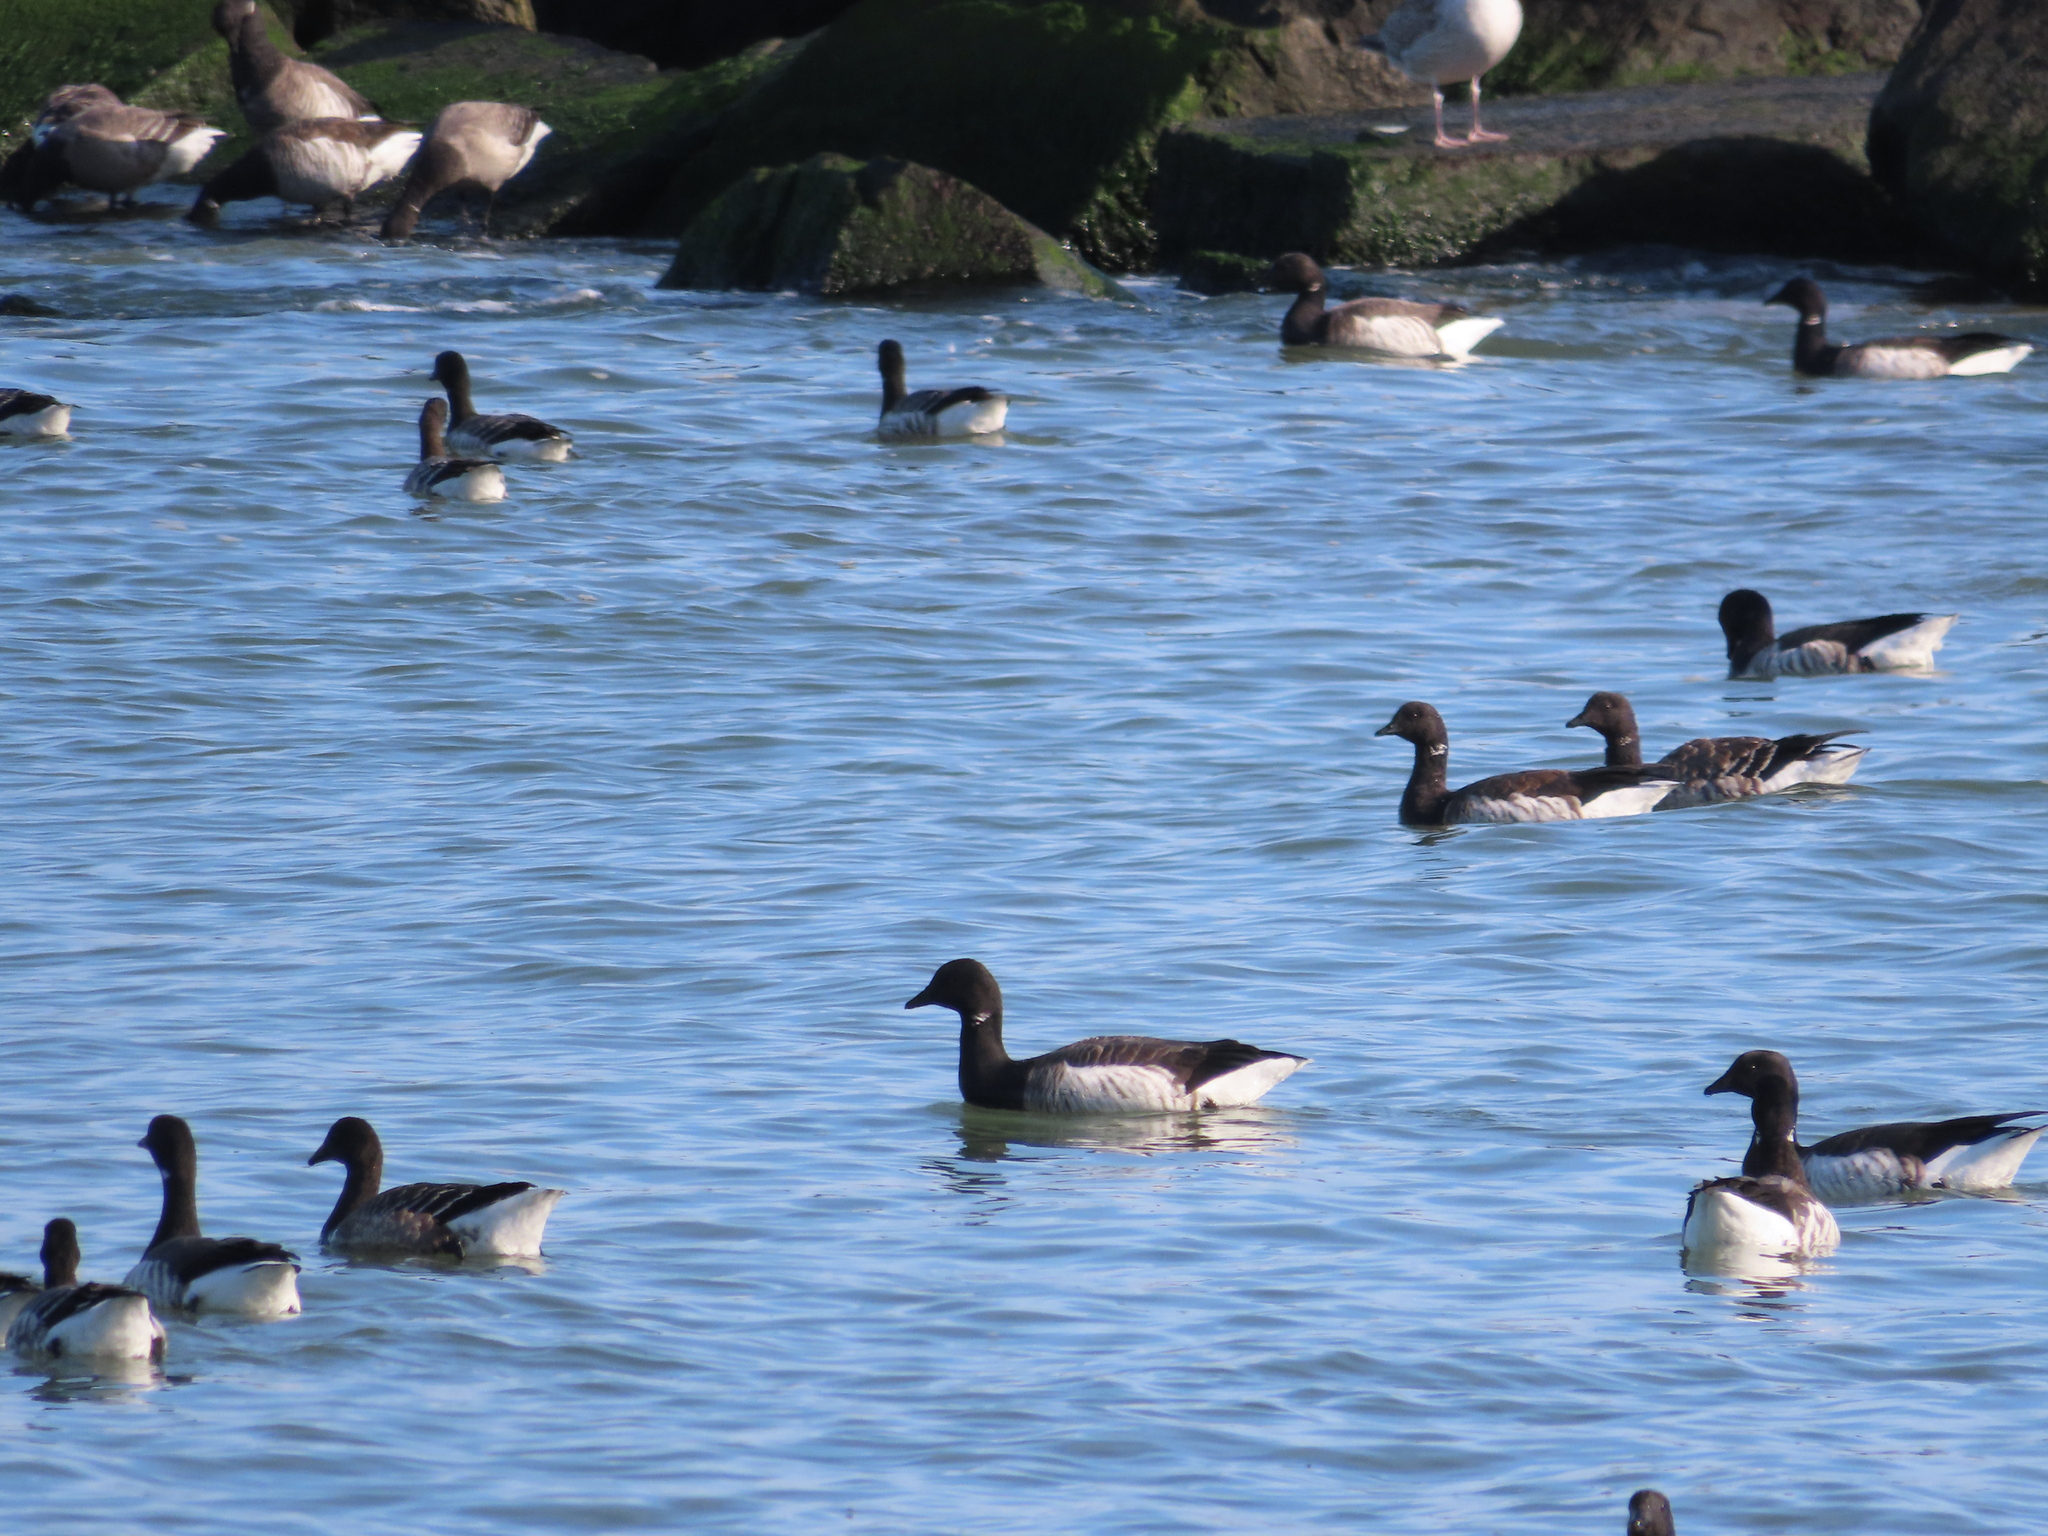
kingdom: Animalia
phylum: Chordata
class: Aves
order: Anseriformes
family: Anatidae
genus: Branta
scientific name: Branta bernicla
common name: Brant goose
